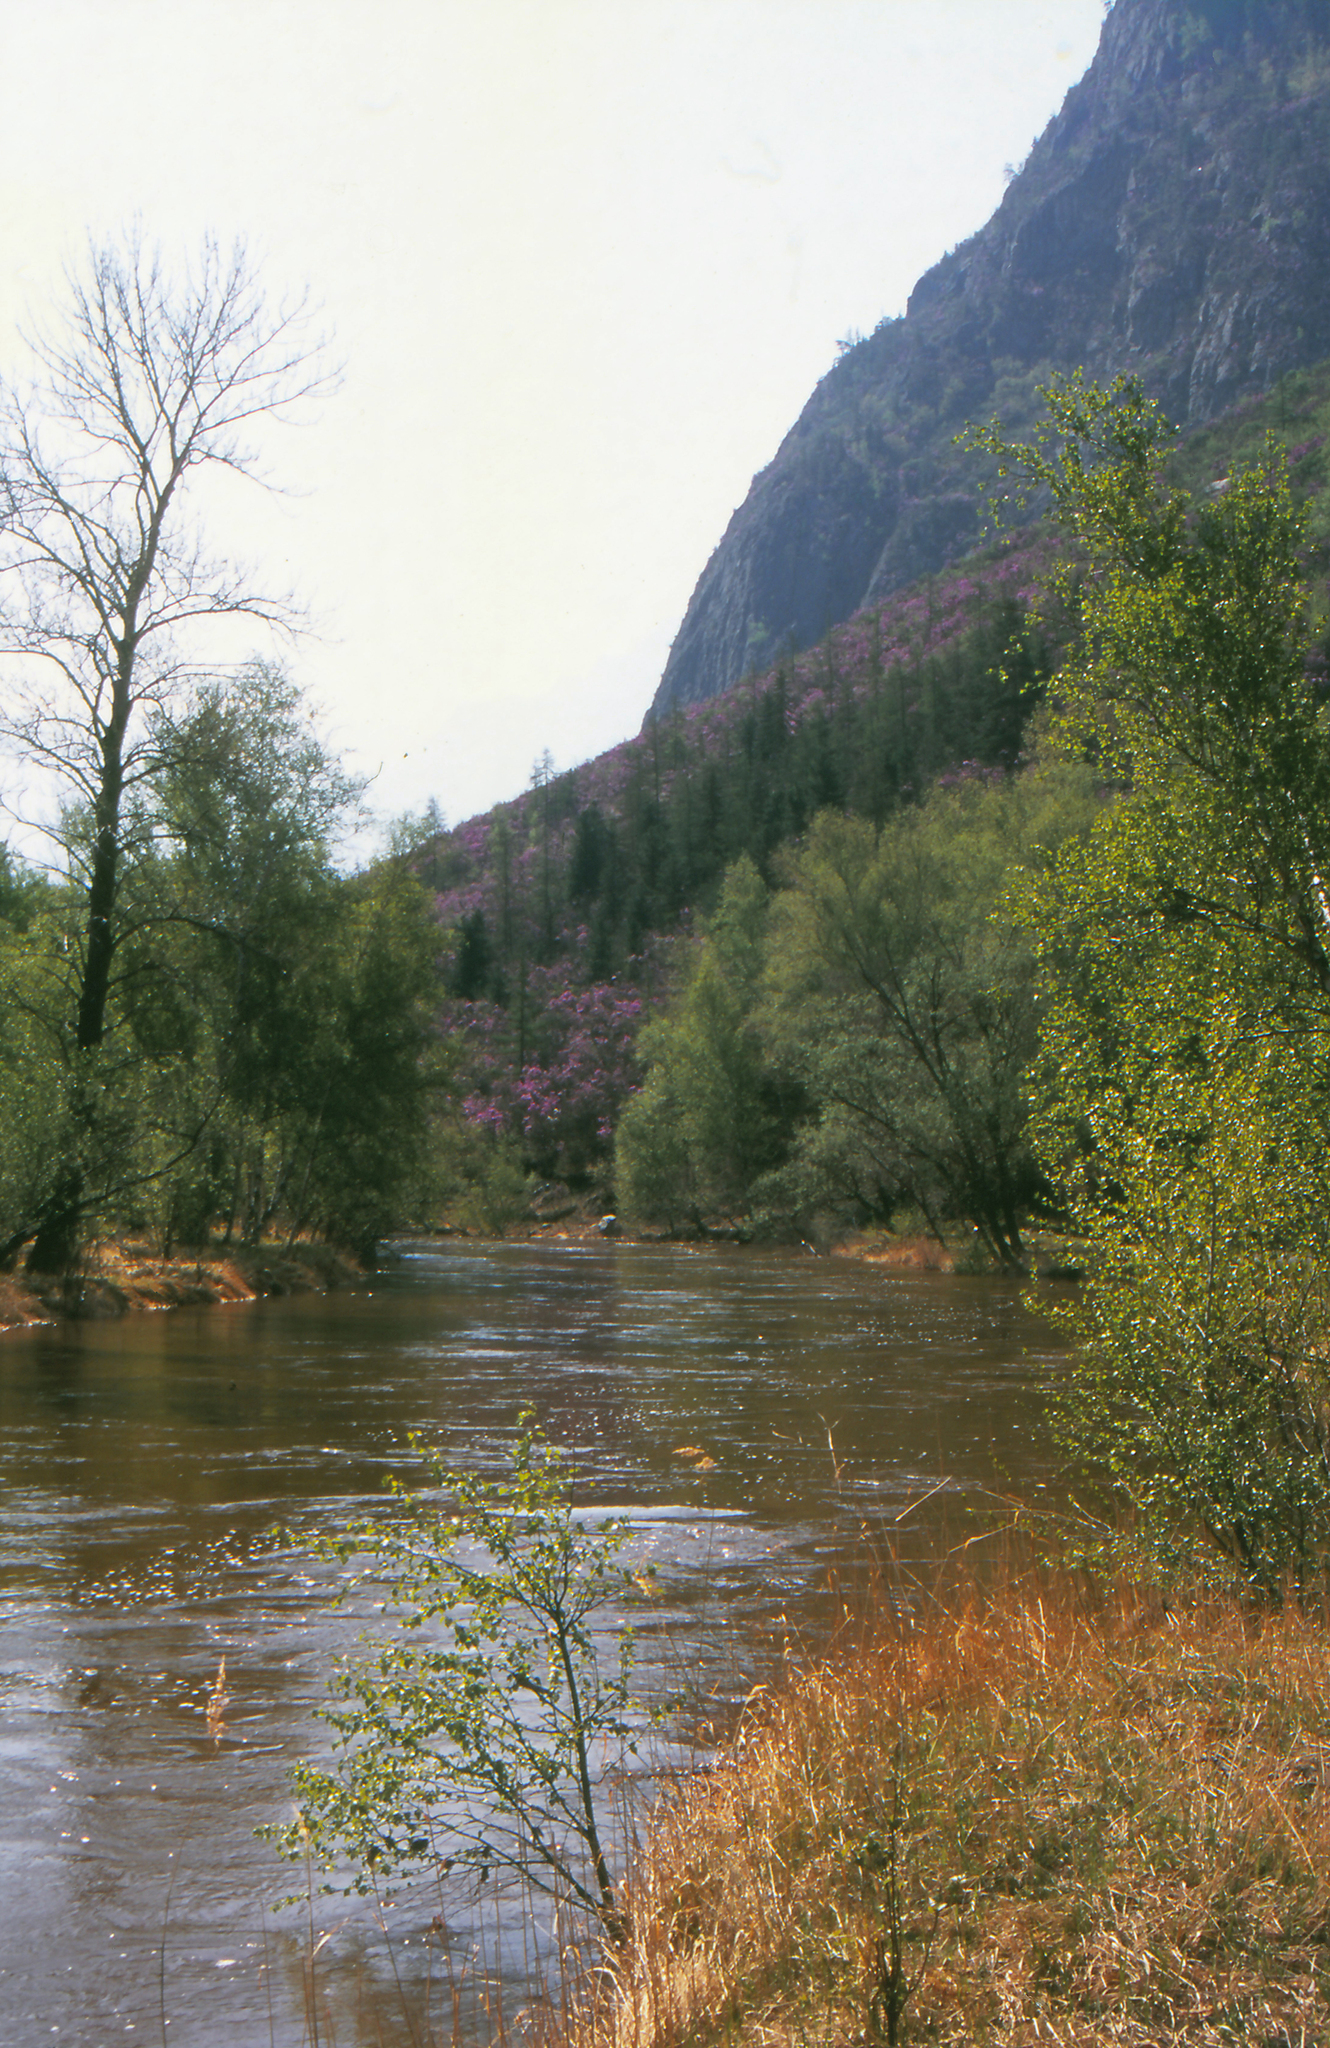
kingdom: Plantae
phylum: Tracheophyta
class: Magnoliopsida
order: Malpighiales
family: Salicaceae
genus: Populus
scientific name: Populus laurifolia
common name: Laurel-leaf poplar
